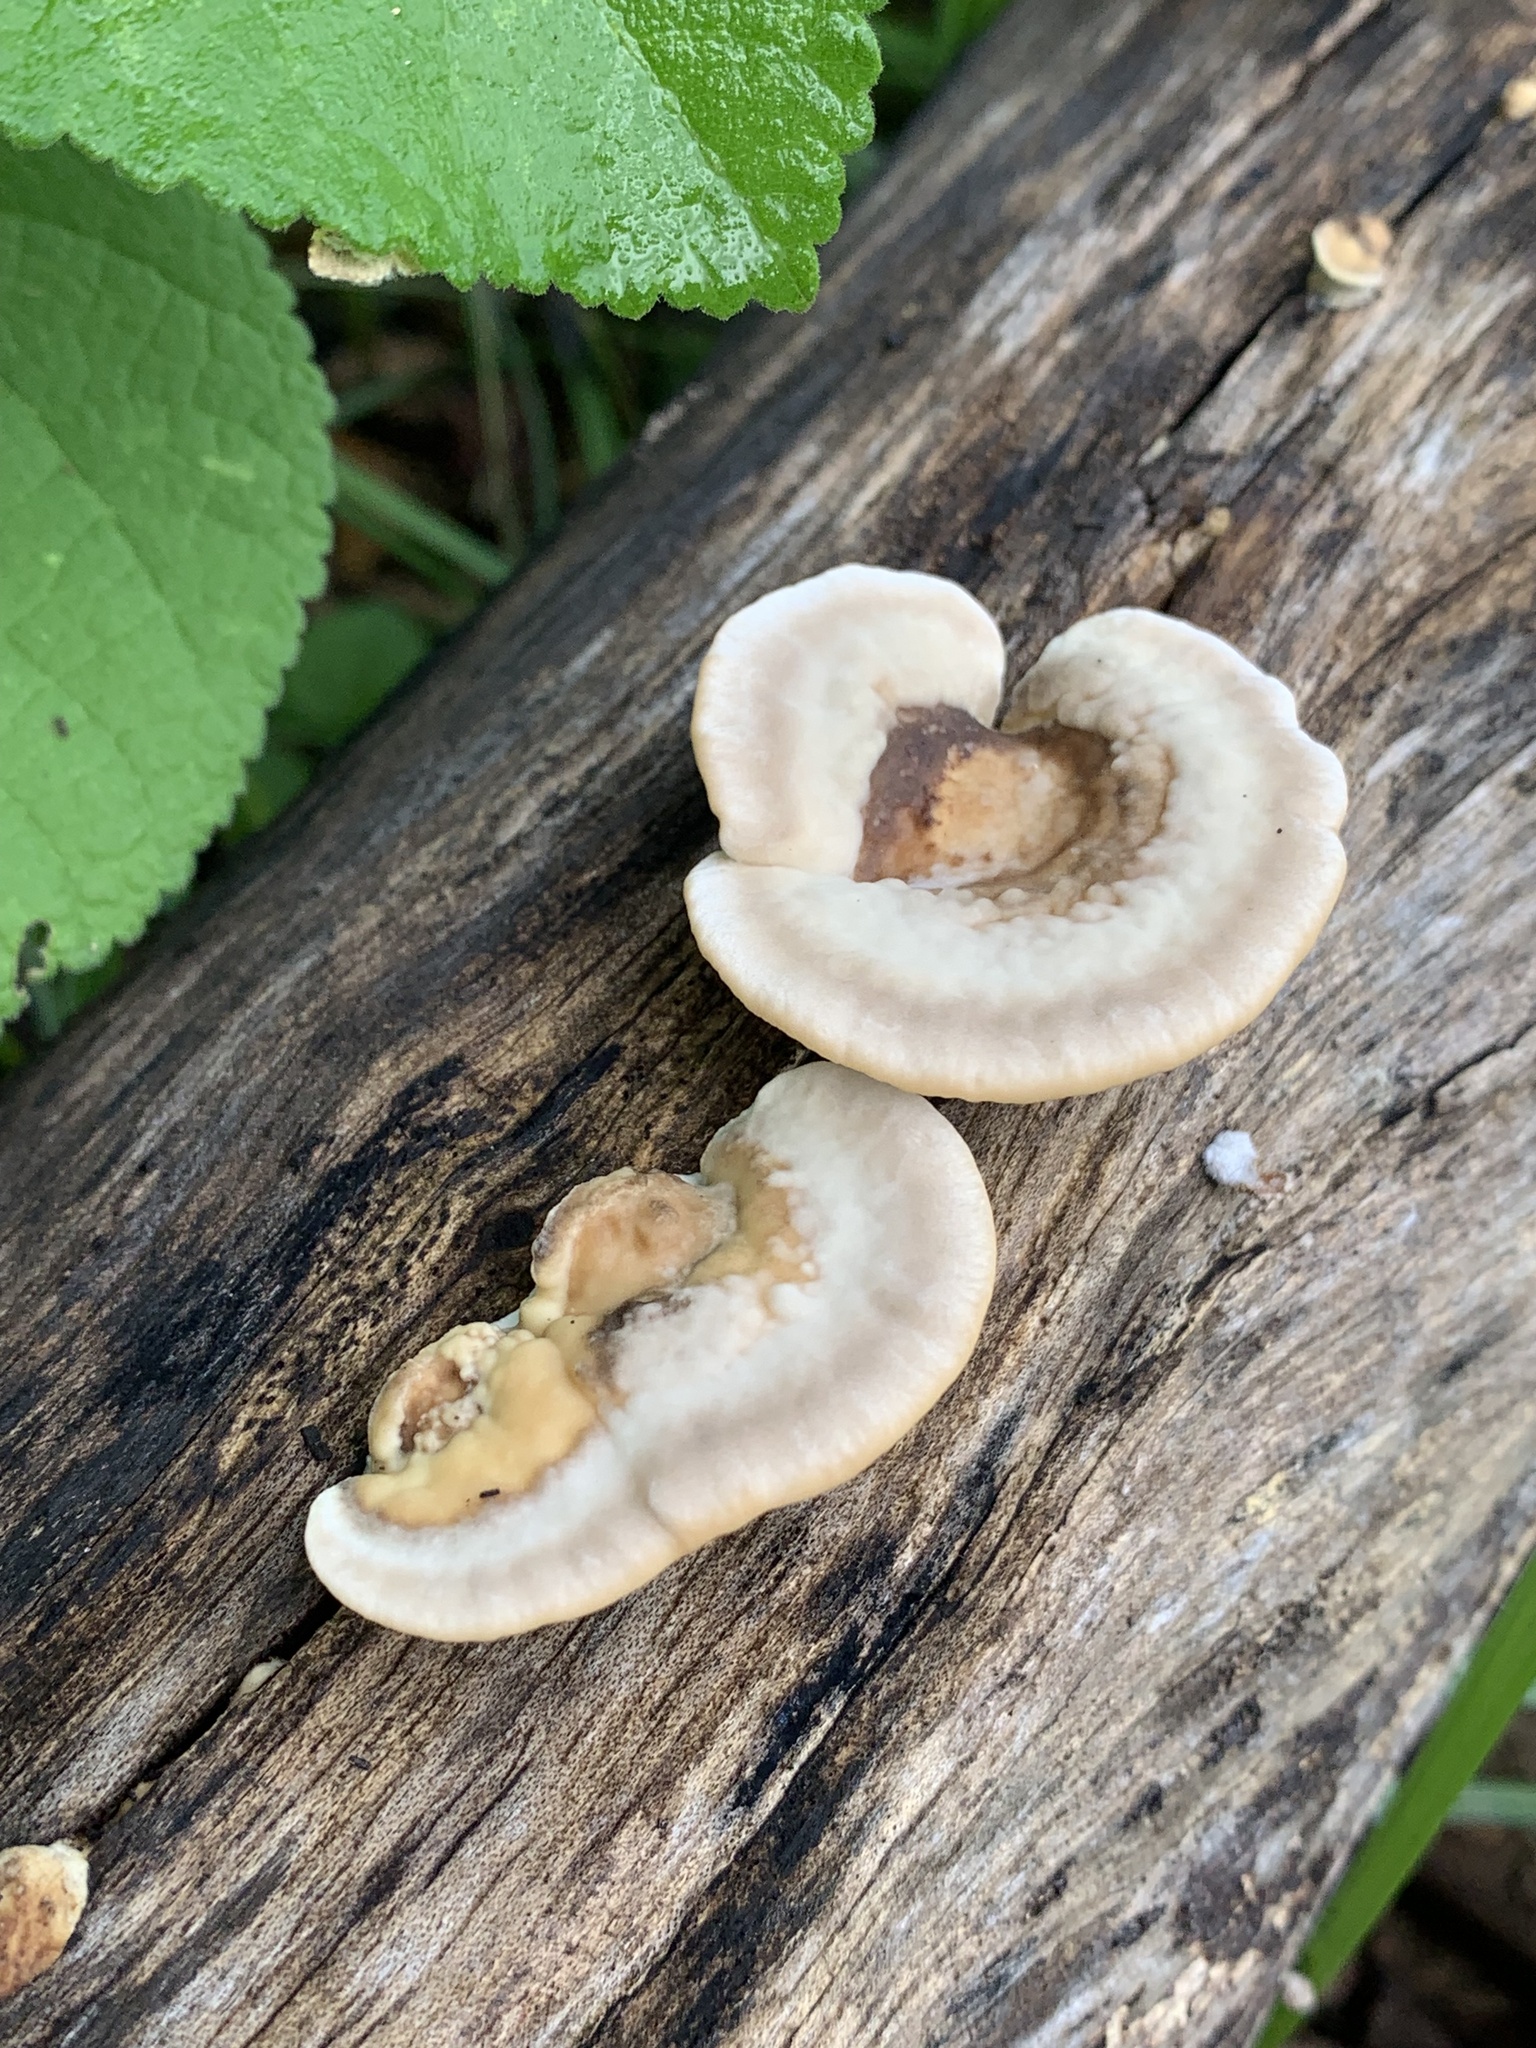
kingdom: Fungi
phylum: Basidiomycota
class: Agaricomycetes
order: Polyporales
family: Polyporaceae
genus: Trametes
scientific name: Trametes cubensis
